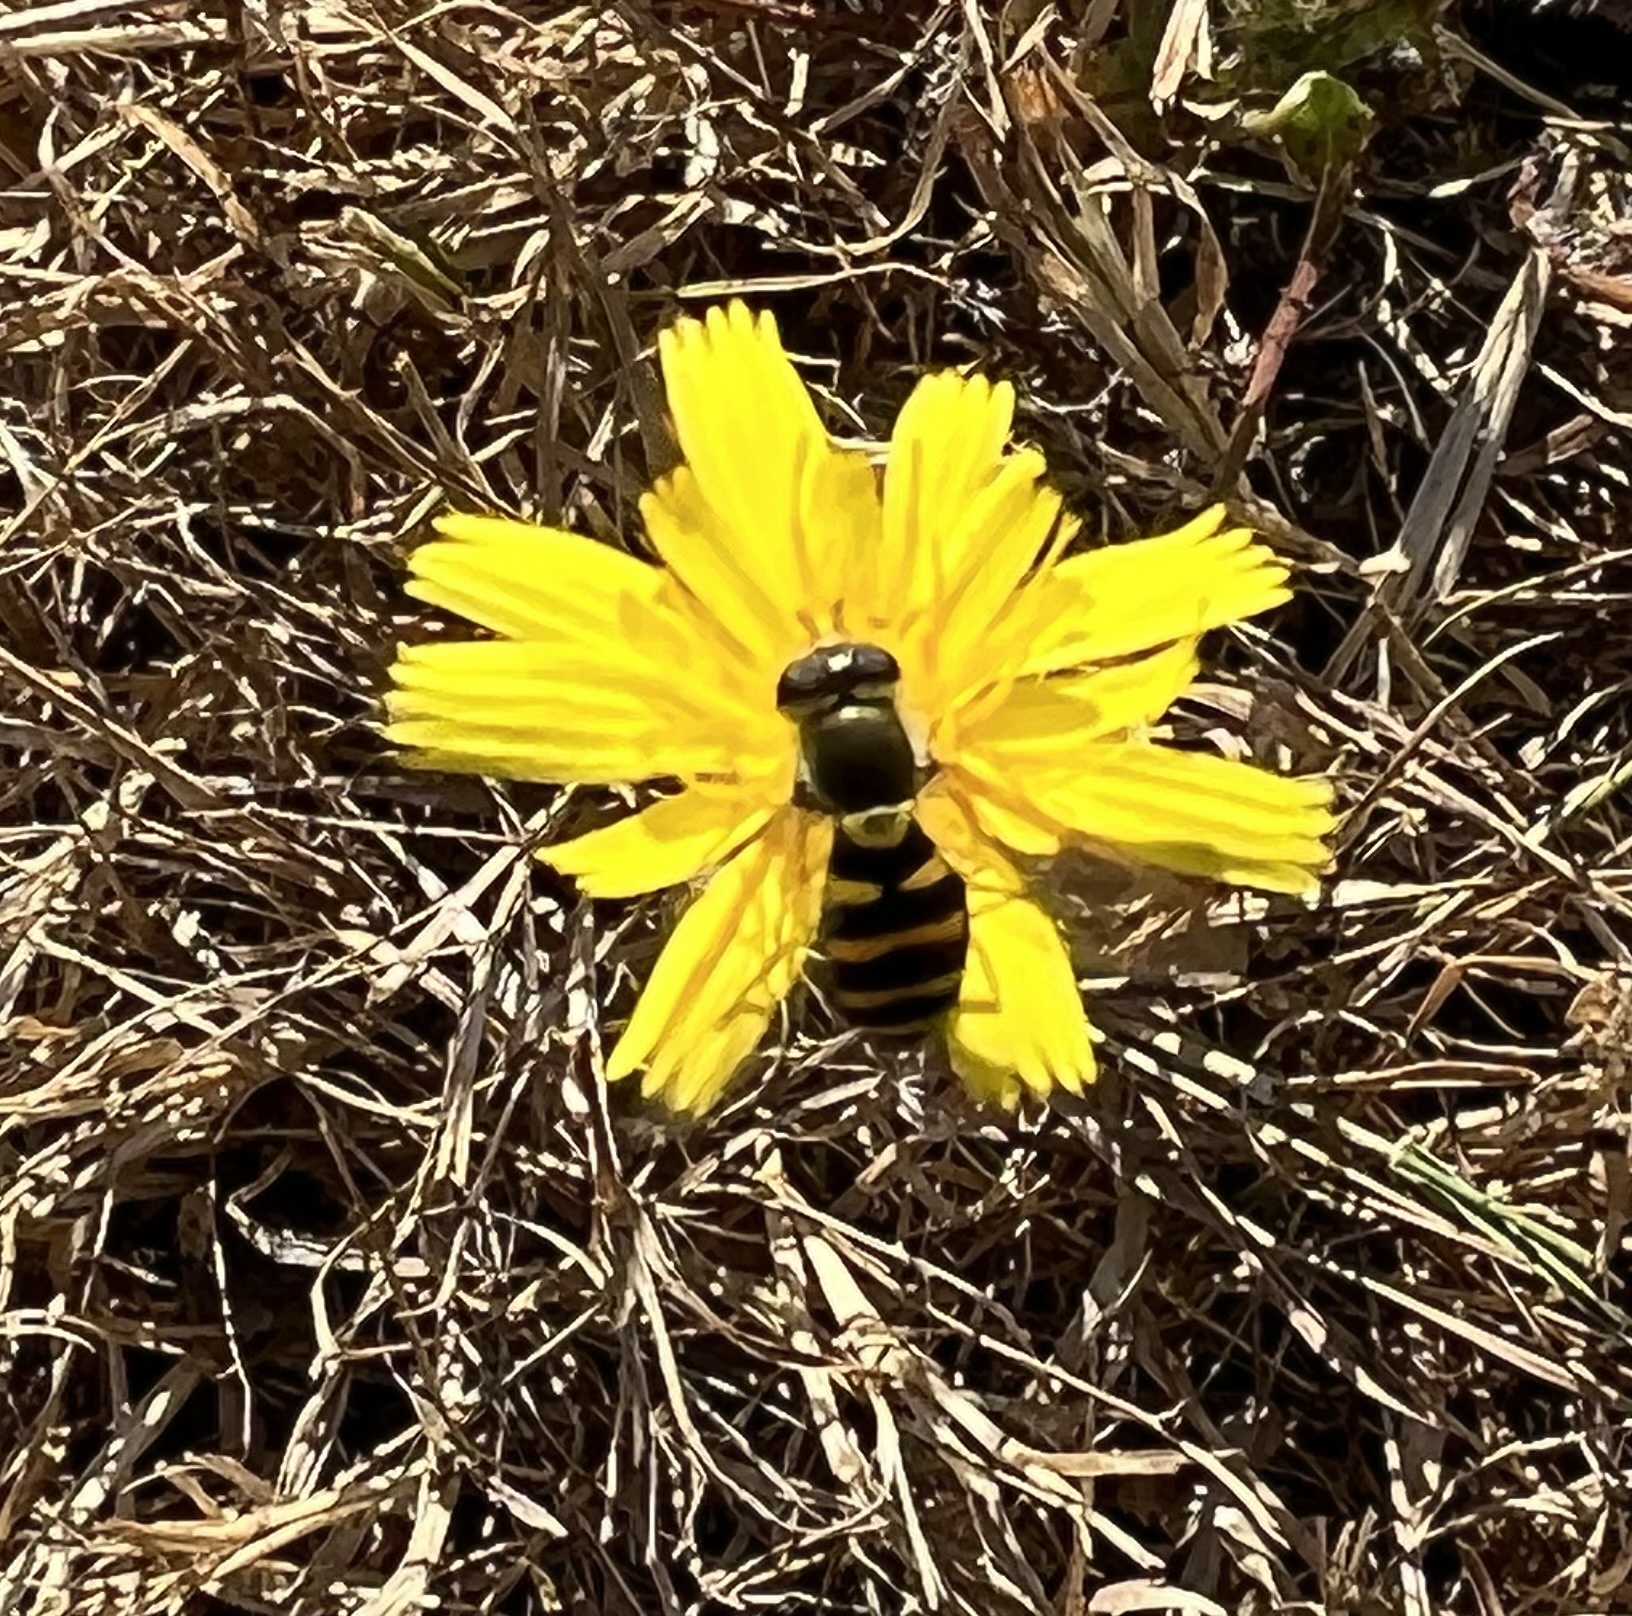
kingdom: Animalia
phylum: Arthropoda
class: Insecta
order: Diptera
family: Syrphidae
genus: Syrphus
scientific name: Syrphus opinator
